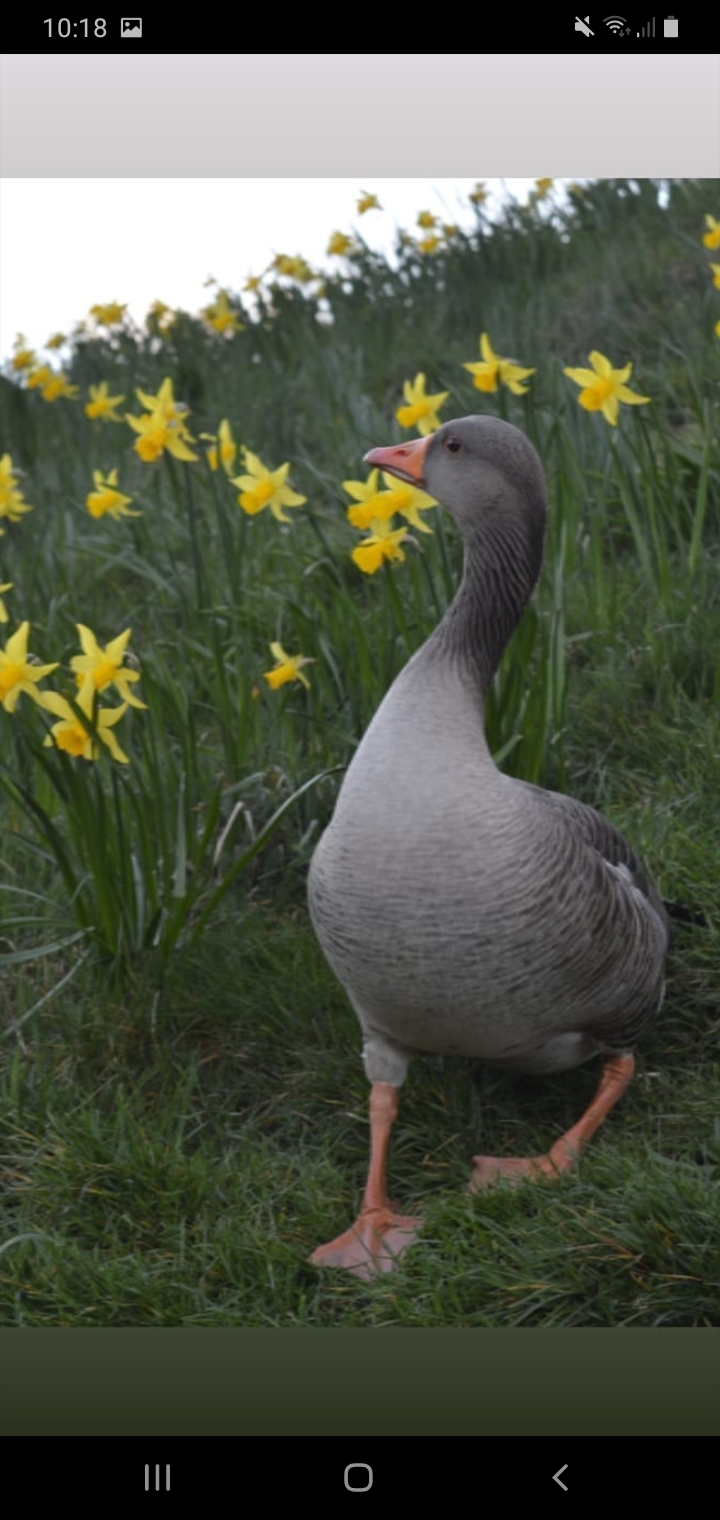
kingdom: Animalia
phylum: Chordata
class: Aves
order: Anseriformes
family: Anatidae
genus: Anser
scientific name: Anser anser
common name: Greylag goose
